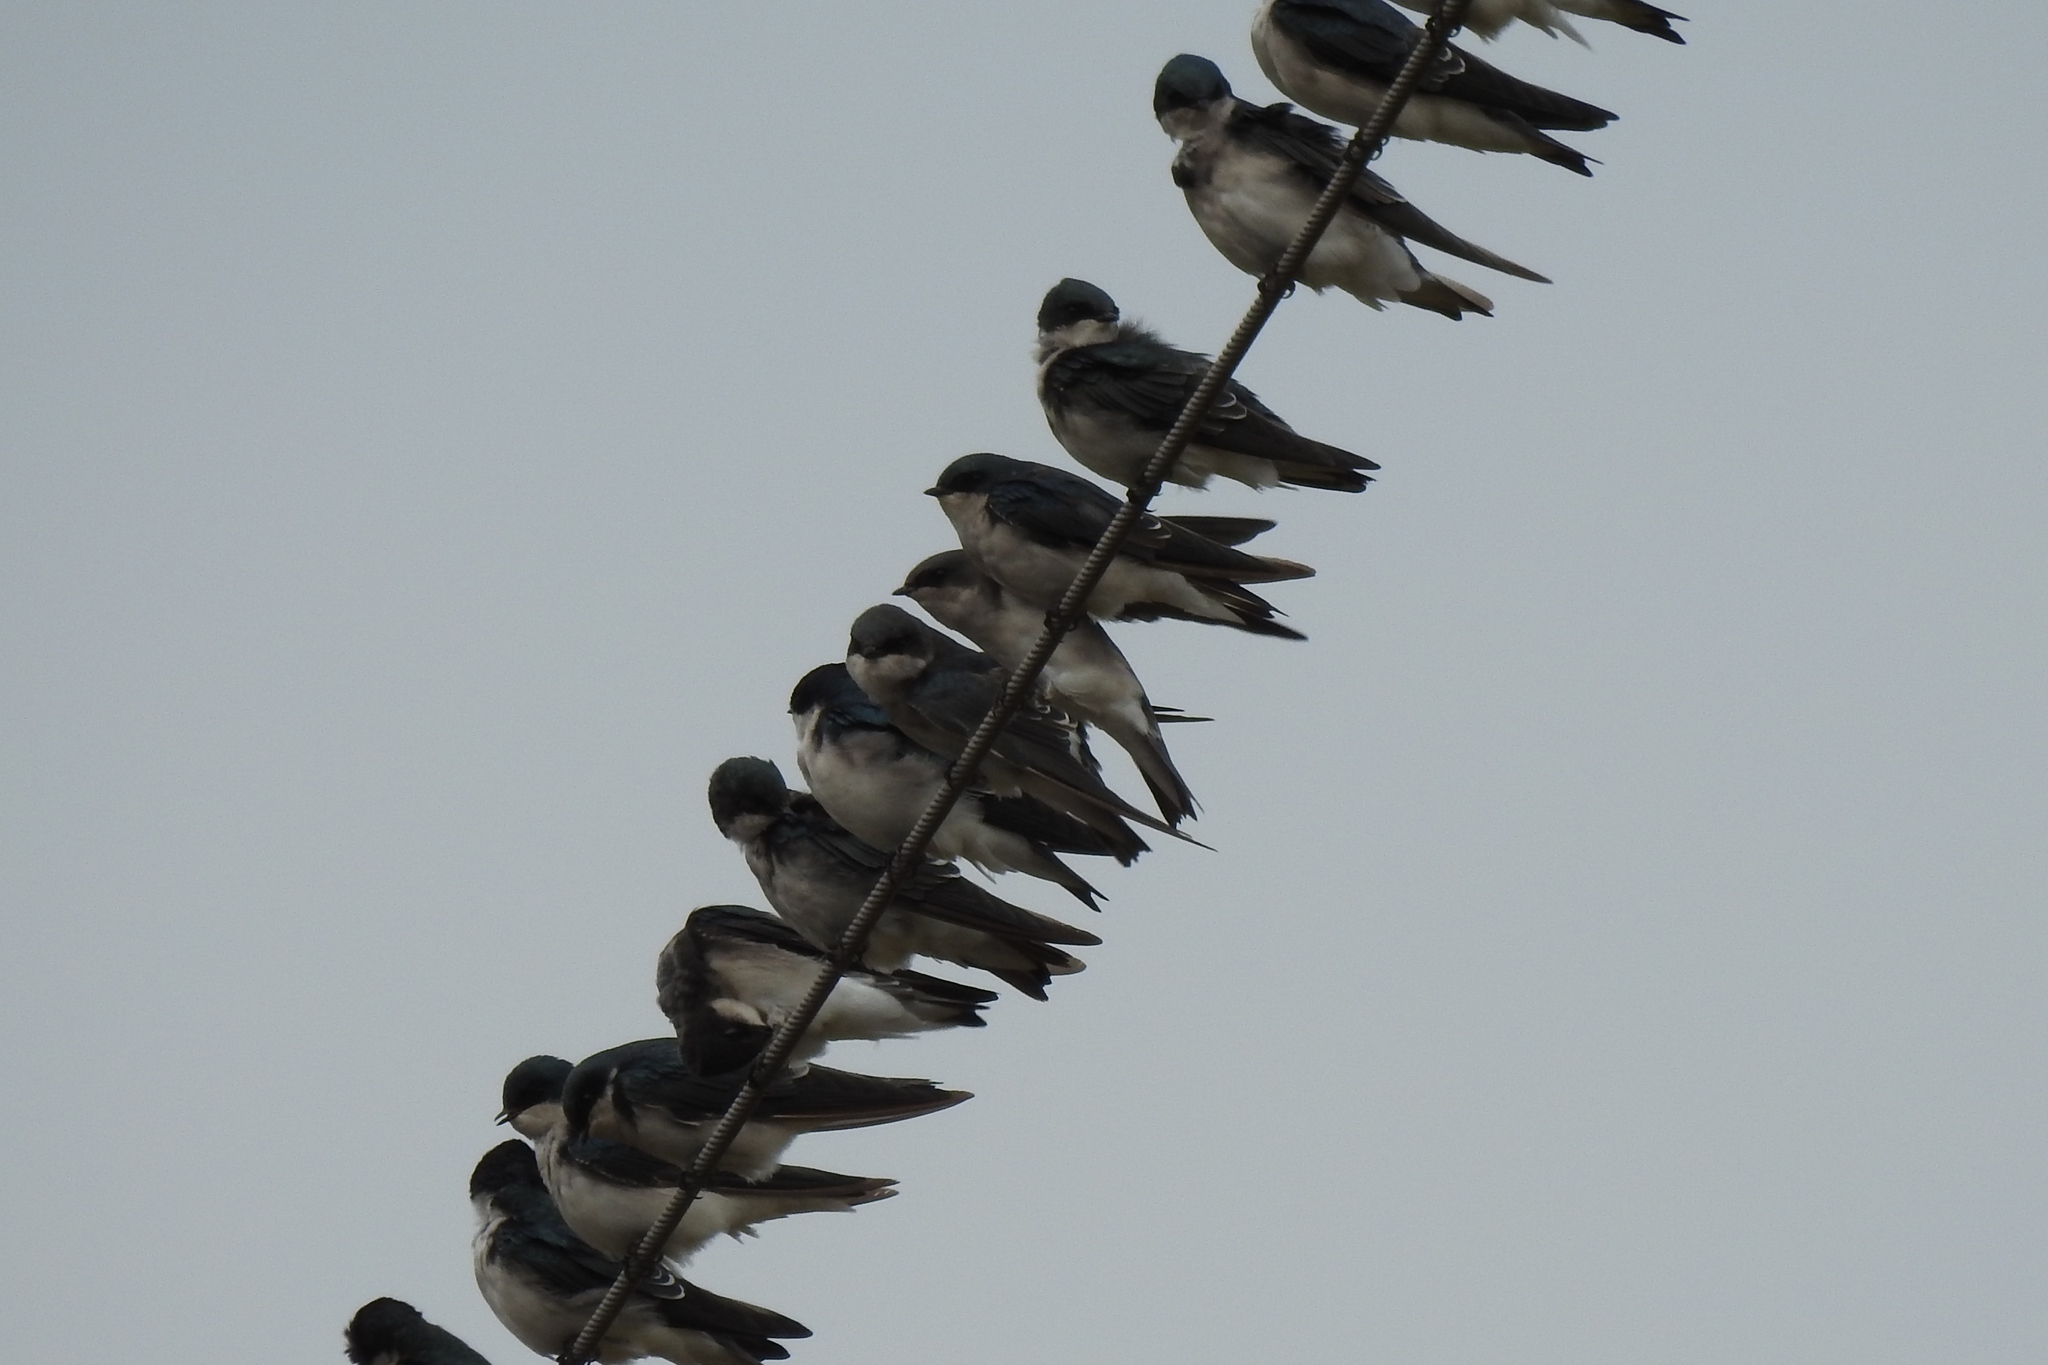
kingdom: Animalia
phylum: Chordata
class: Aves
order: Passeriformes
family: Hirundinidae
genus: Tachycineta
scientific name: Tachycineta bicolor
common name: Tree swallow
